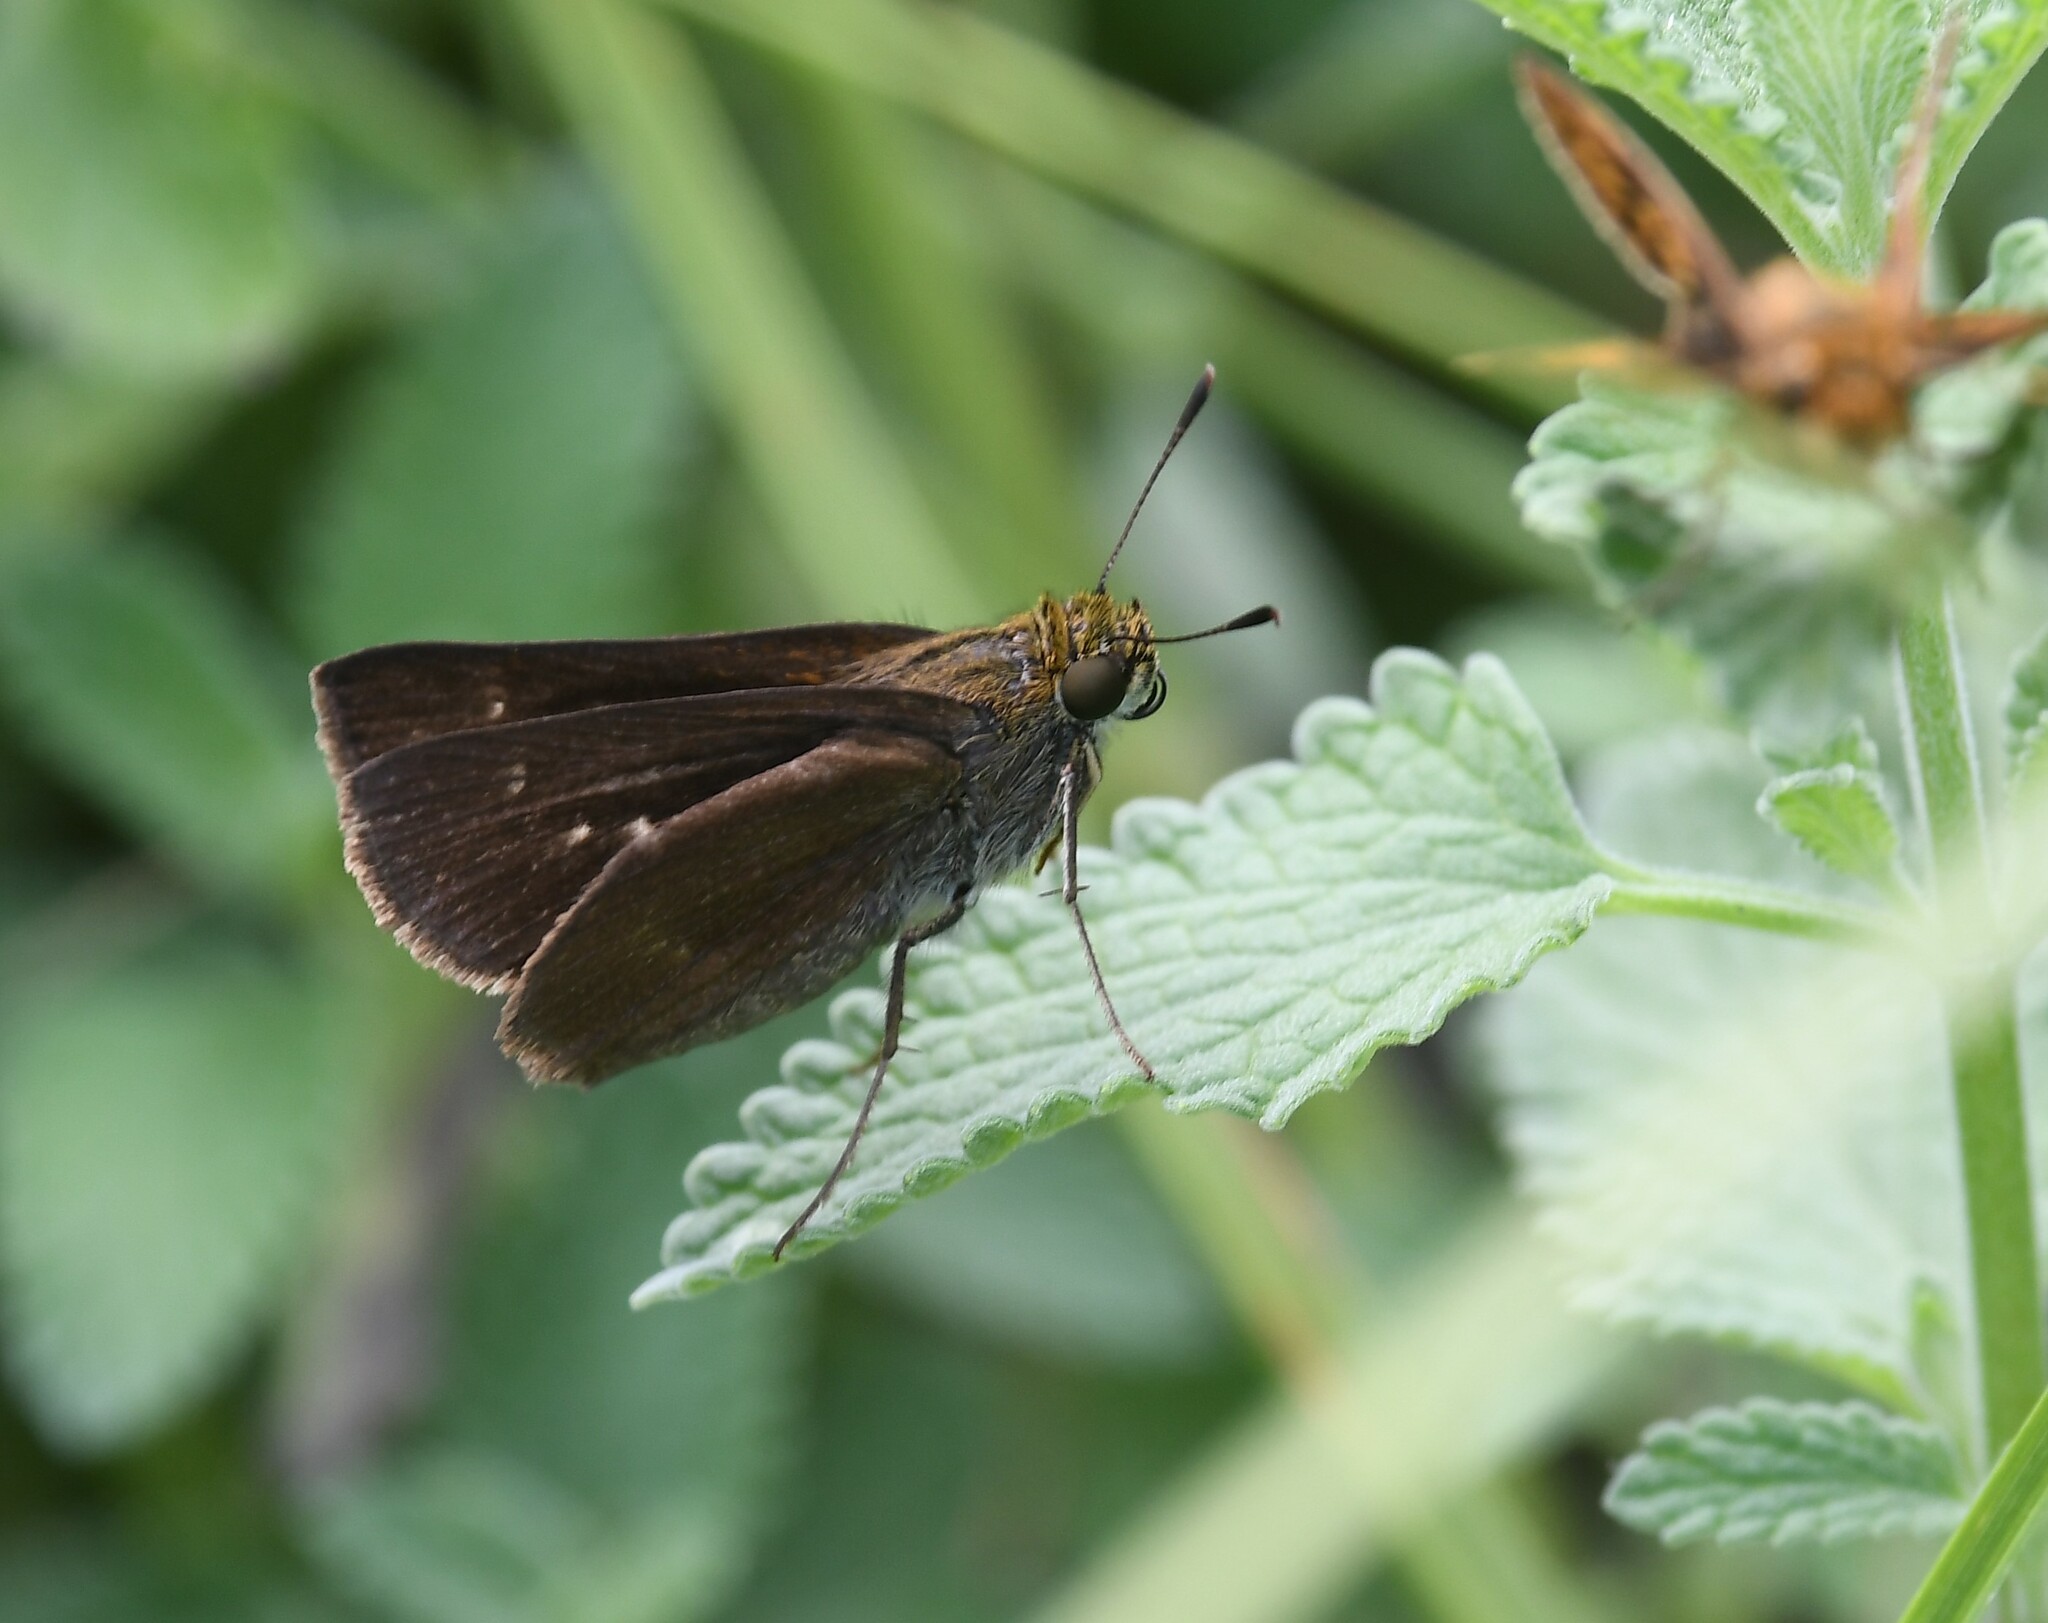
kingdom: Animalia
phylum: Arthropoda
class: Insecta
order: Lepidoptera
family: Hesperiidae
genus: Euphyes
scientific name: Euphyes vestris
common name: Dun skipper
